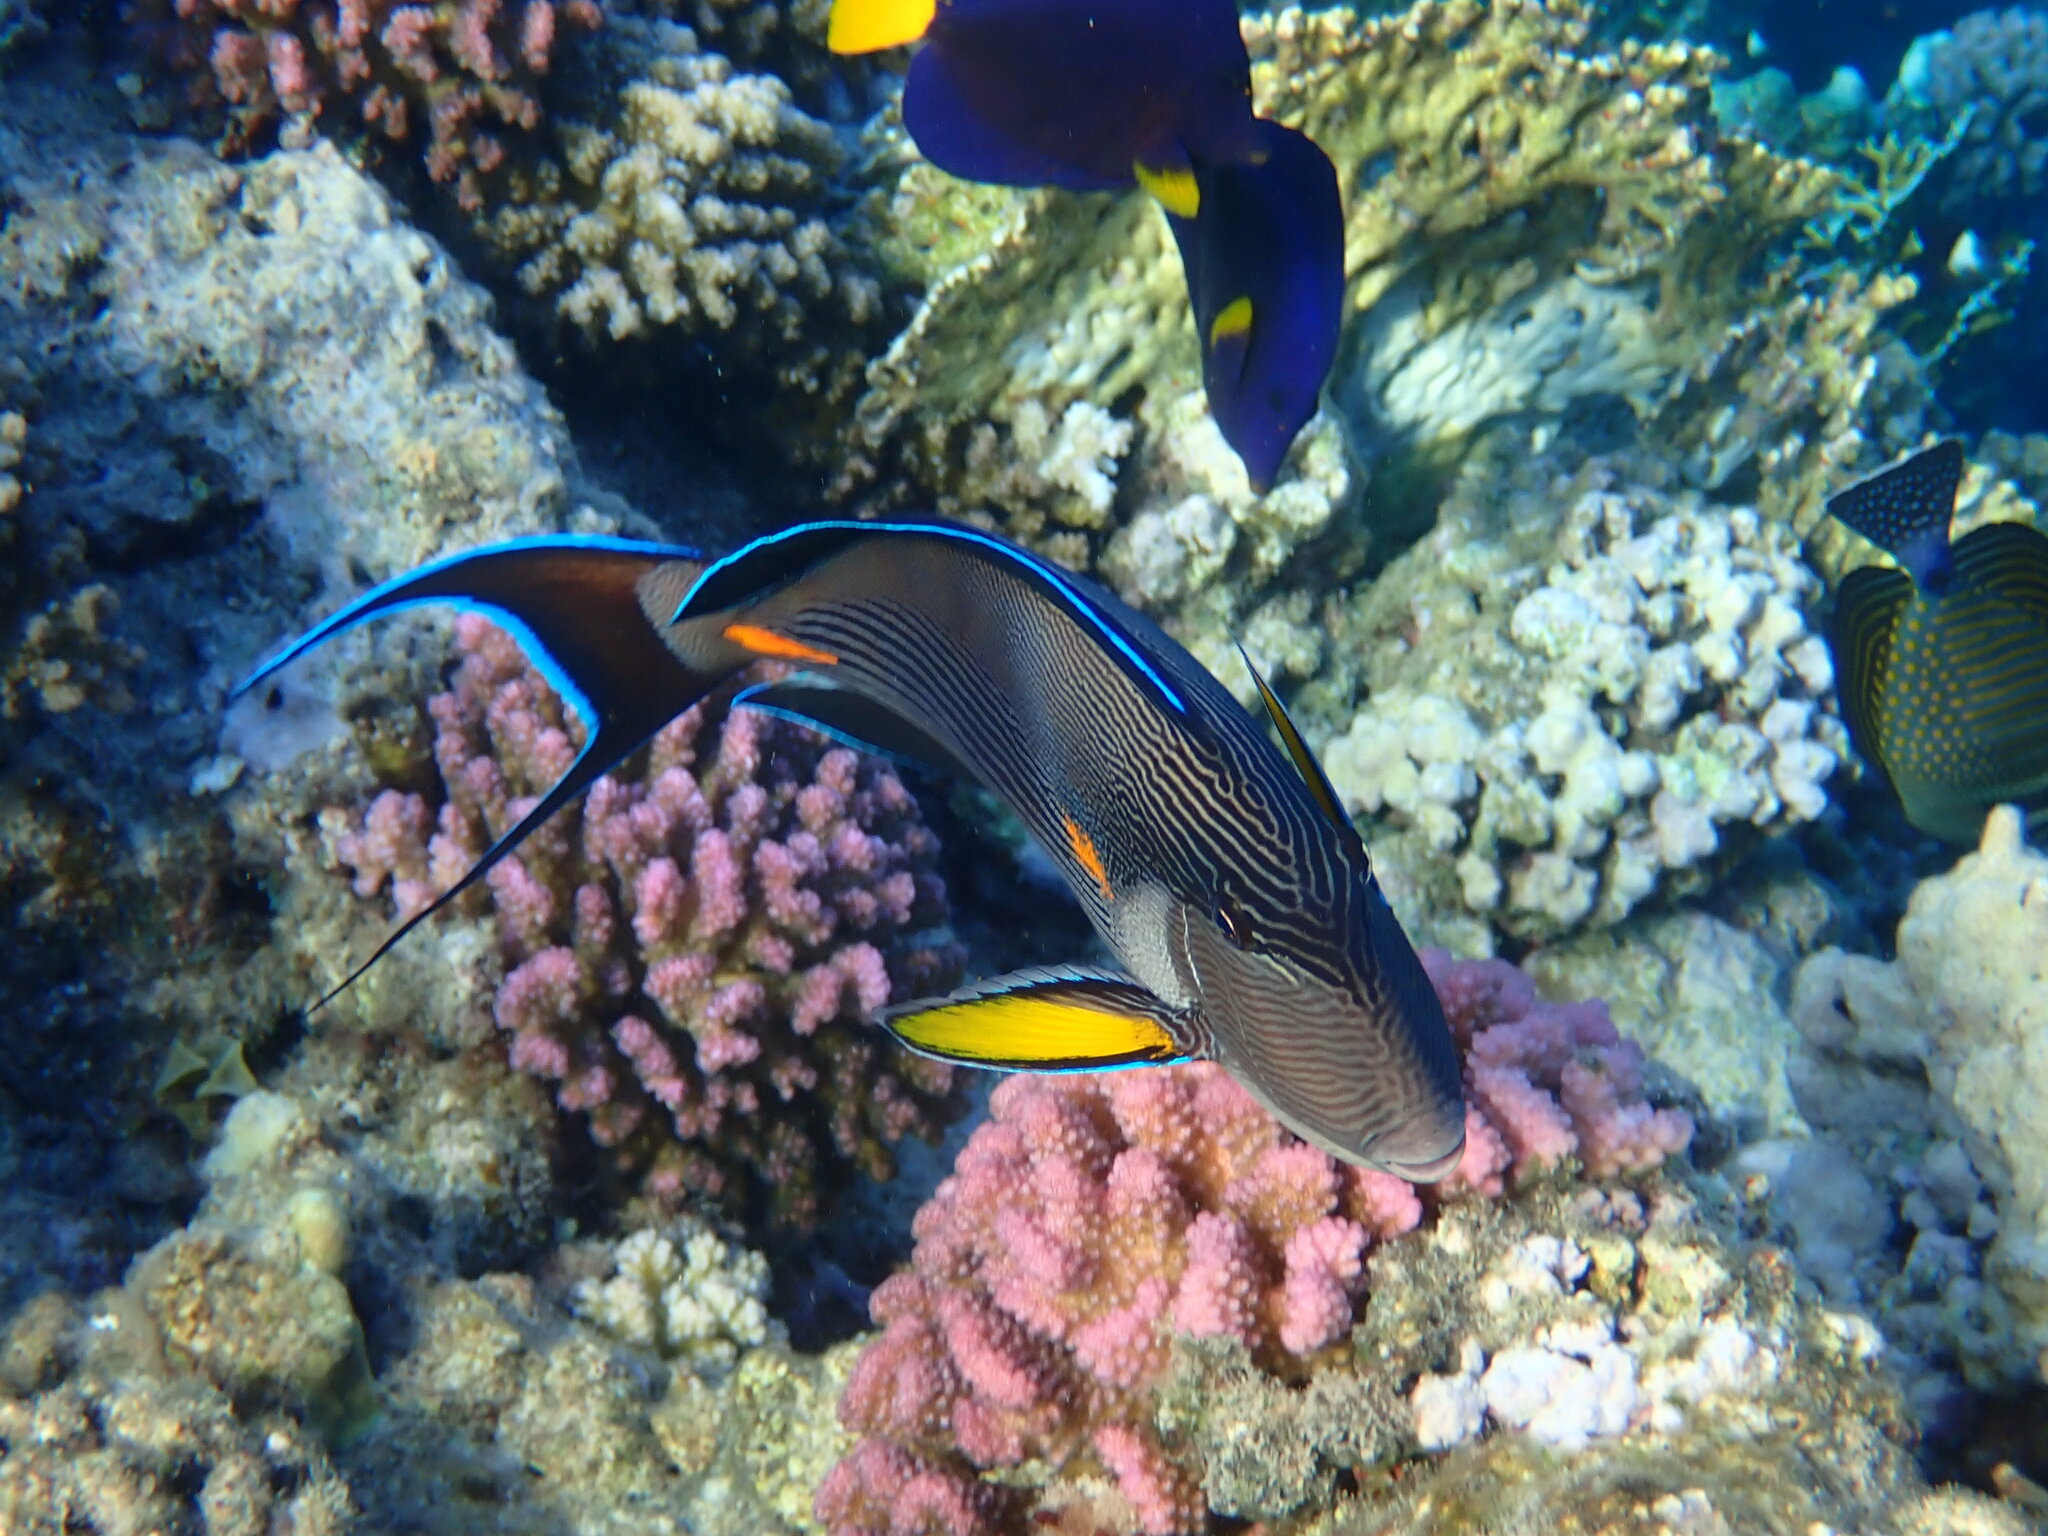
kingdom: Animalia
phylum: Chordata
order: Perciformes
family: Acanthuridae
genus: Acanthurus
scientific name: Acanthurus sohal
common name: Red sea surgeonfish
